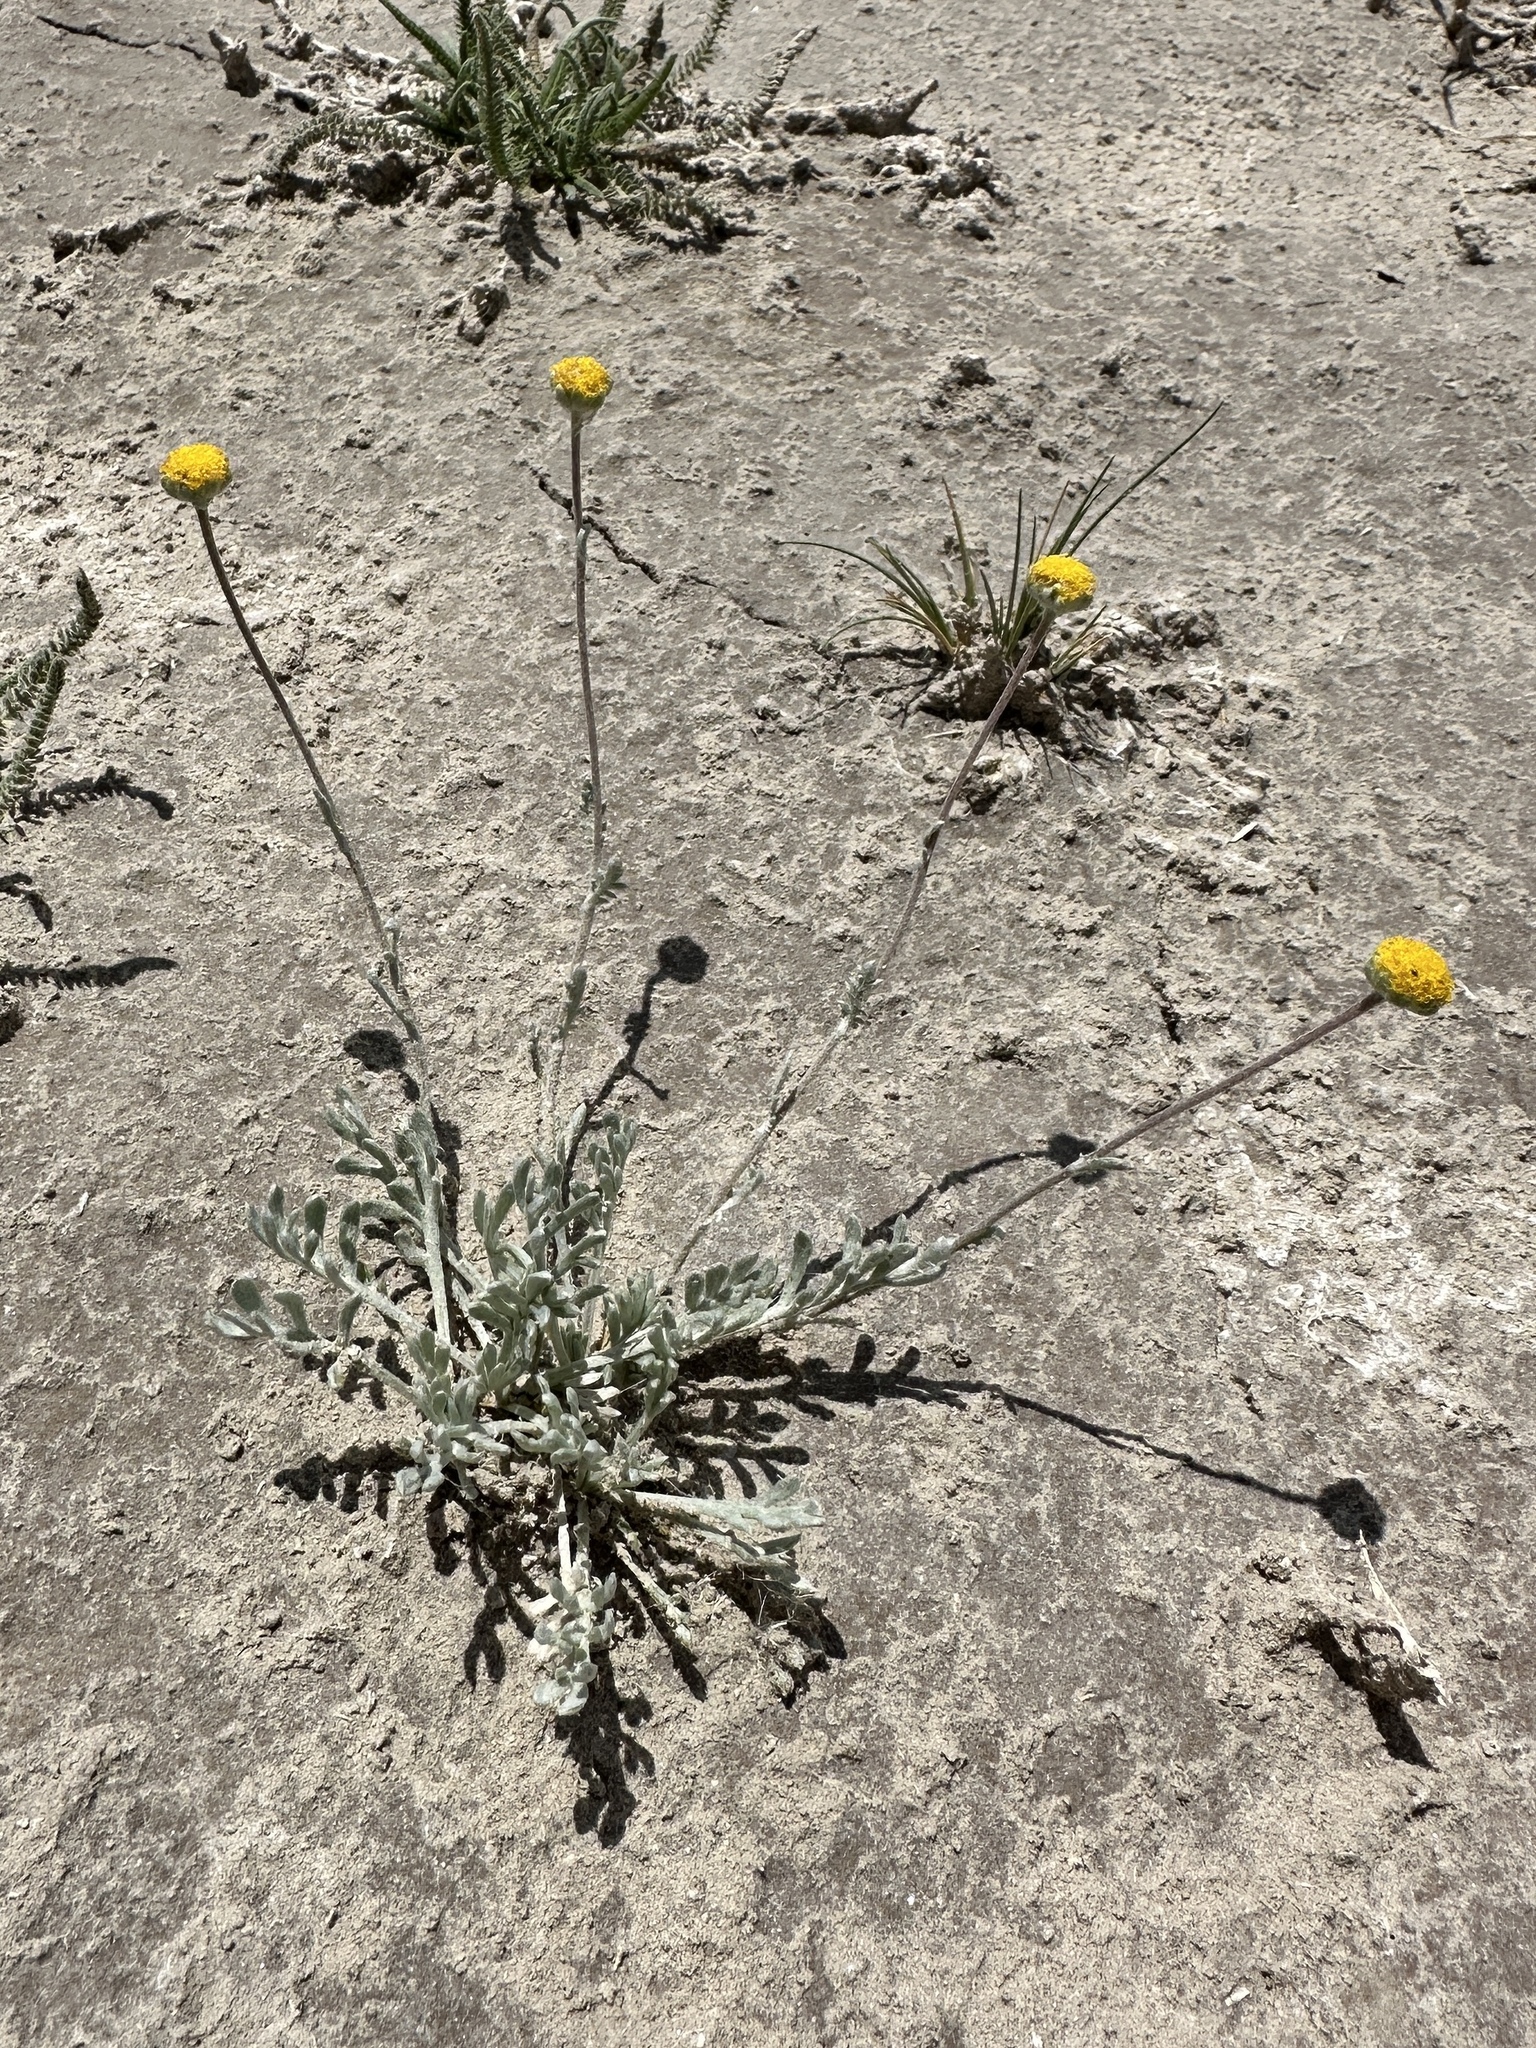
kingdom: Plantae
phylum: Tracheophyta
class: Magnoliopsida
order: Asterales
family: Asteraceae
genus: Artemisia
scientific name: Artemisia potentilloides
